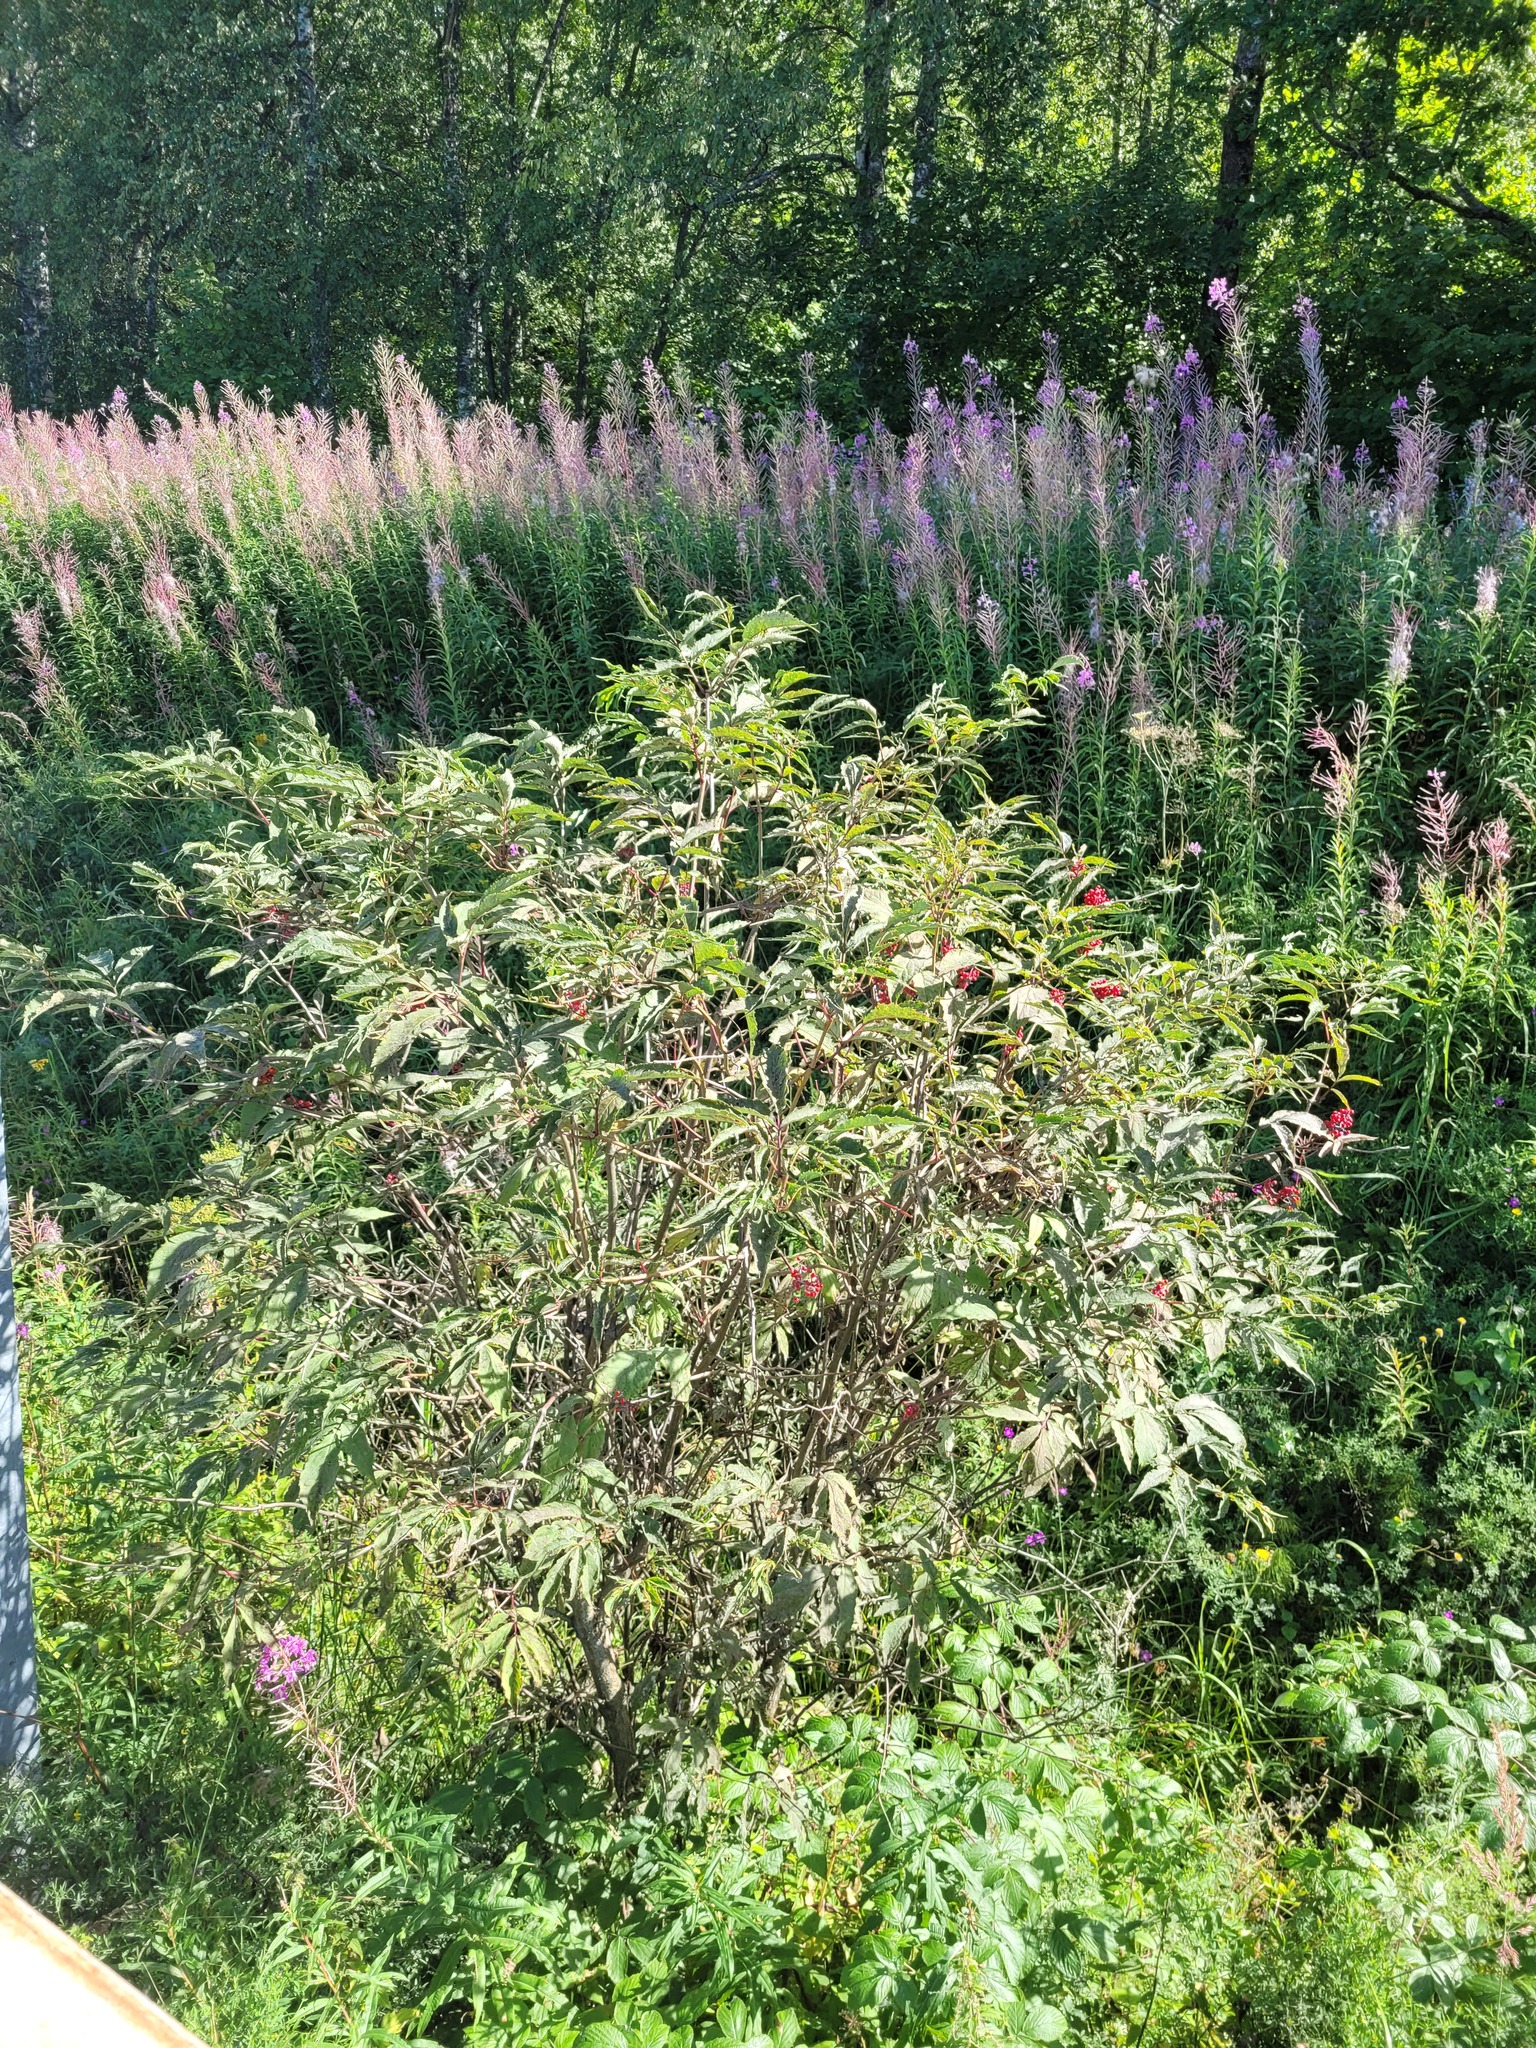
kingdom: Plantae
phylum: Tracheophyta
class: Magnoliopsida
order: Dipsacales
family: Viburnaceae
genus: Sambucus
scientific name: Sambucus racemosa
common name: Red-berried elder
